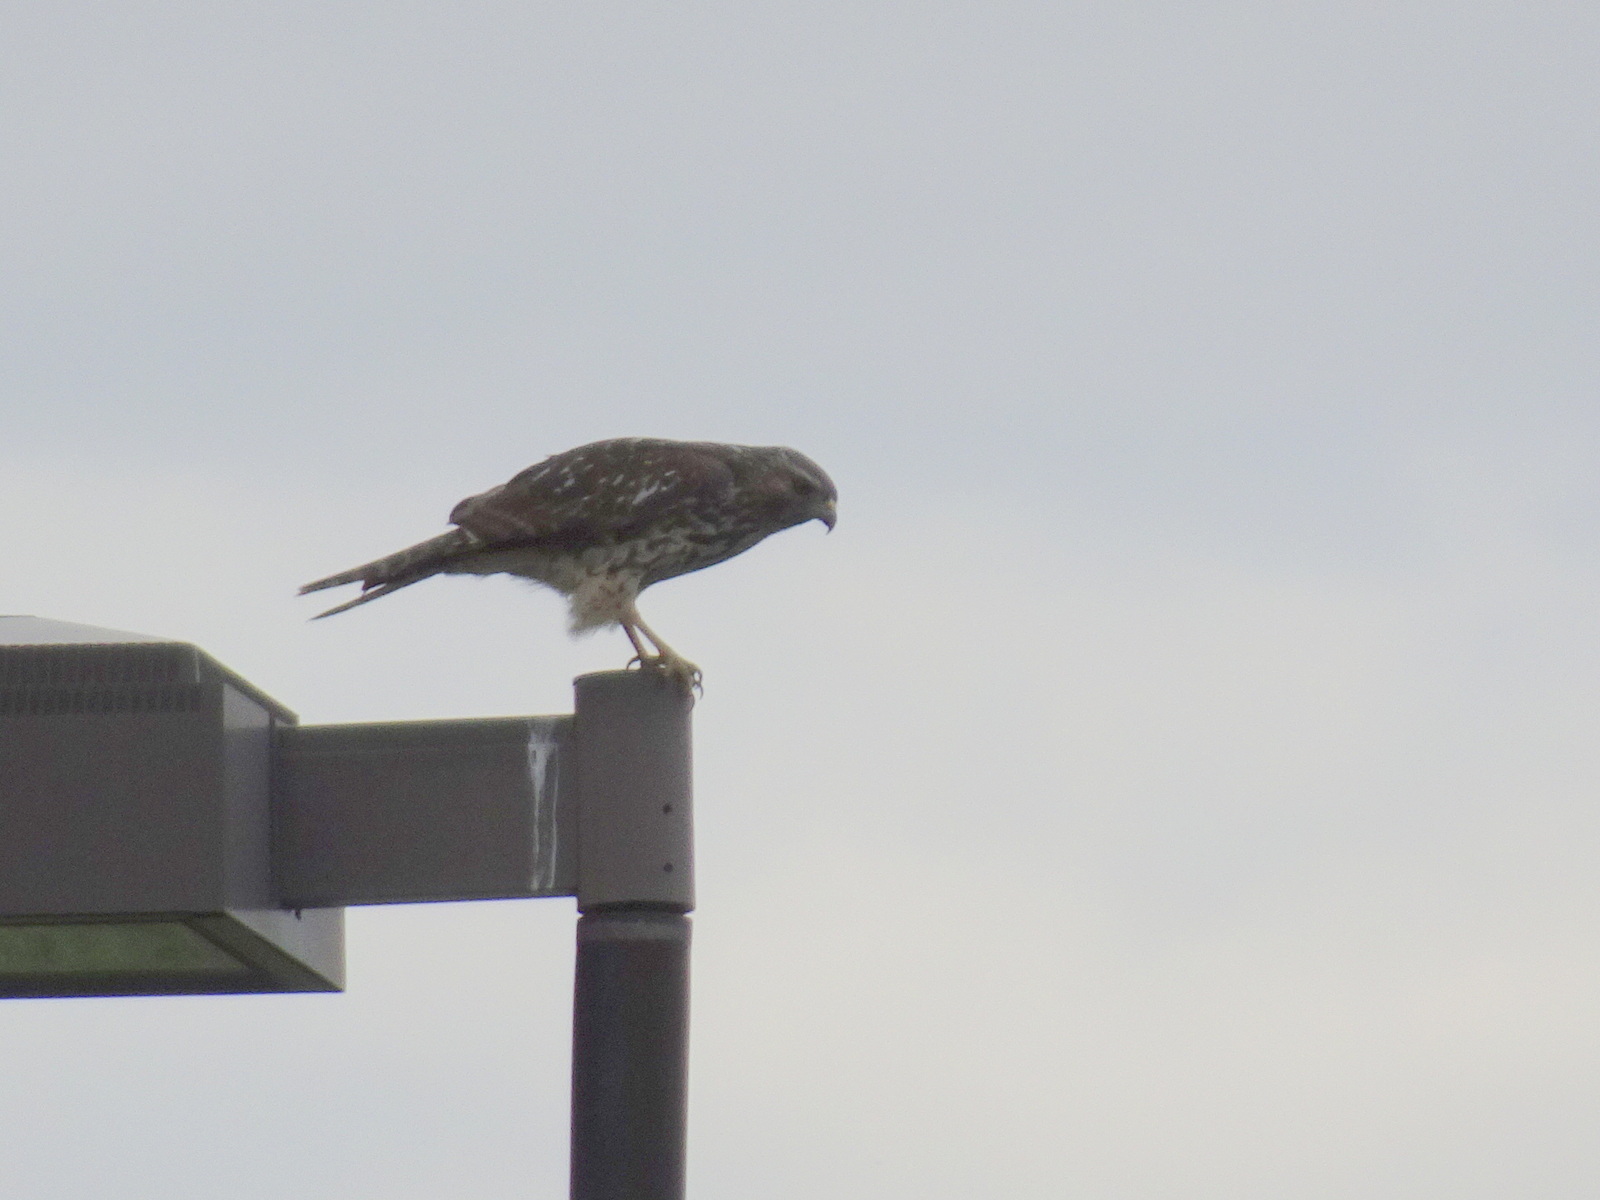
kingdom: Animalia
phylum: Chordata
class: Aves
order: Accipitriformes
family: Accipitridae
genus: Buteo
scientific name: Buteo lineatus
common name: Red-shouldered hawk
